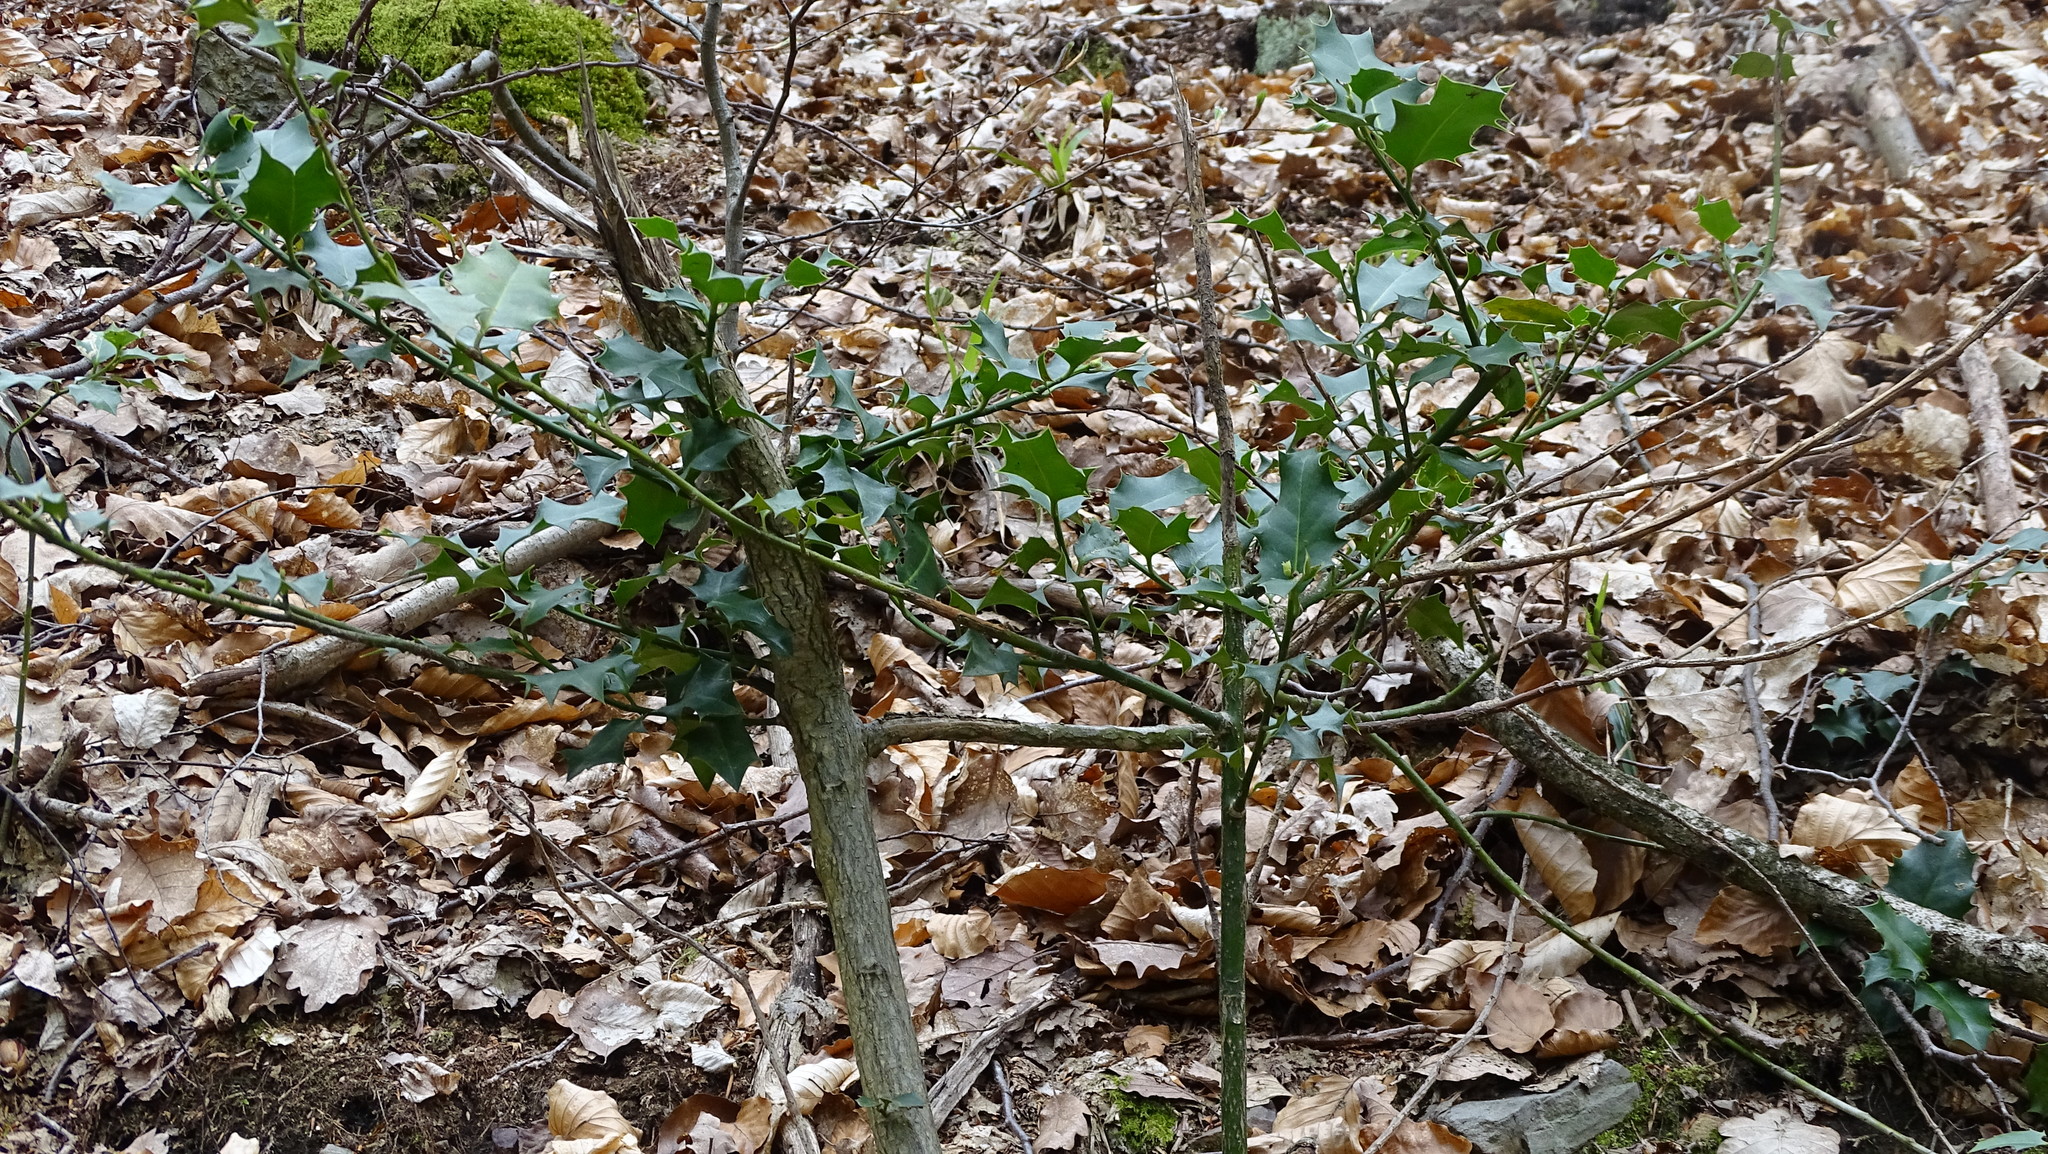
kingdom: Plantae
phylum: Tracheophyta
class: Magnoliopsida
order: Aquifoliales
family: Aquifoliaceae
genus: Ilex
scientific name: Ilex aquifolium
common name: English holly
